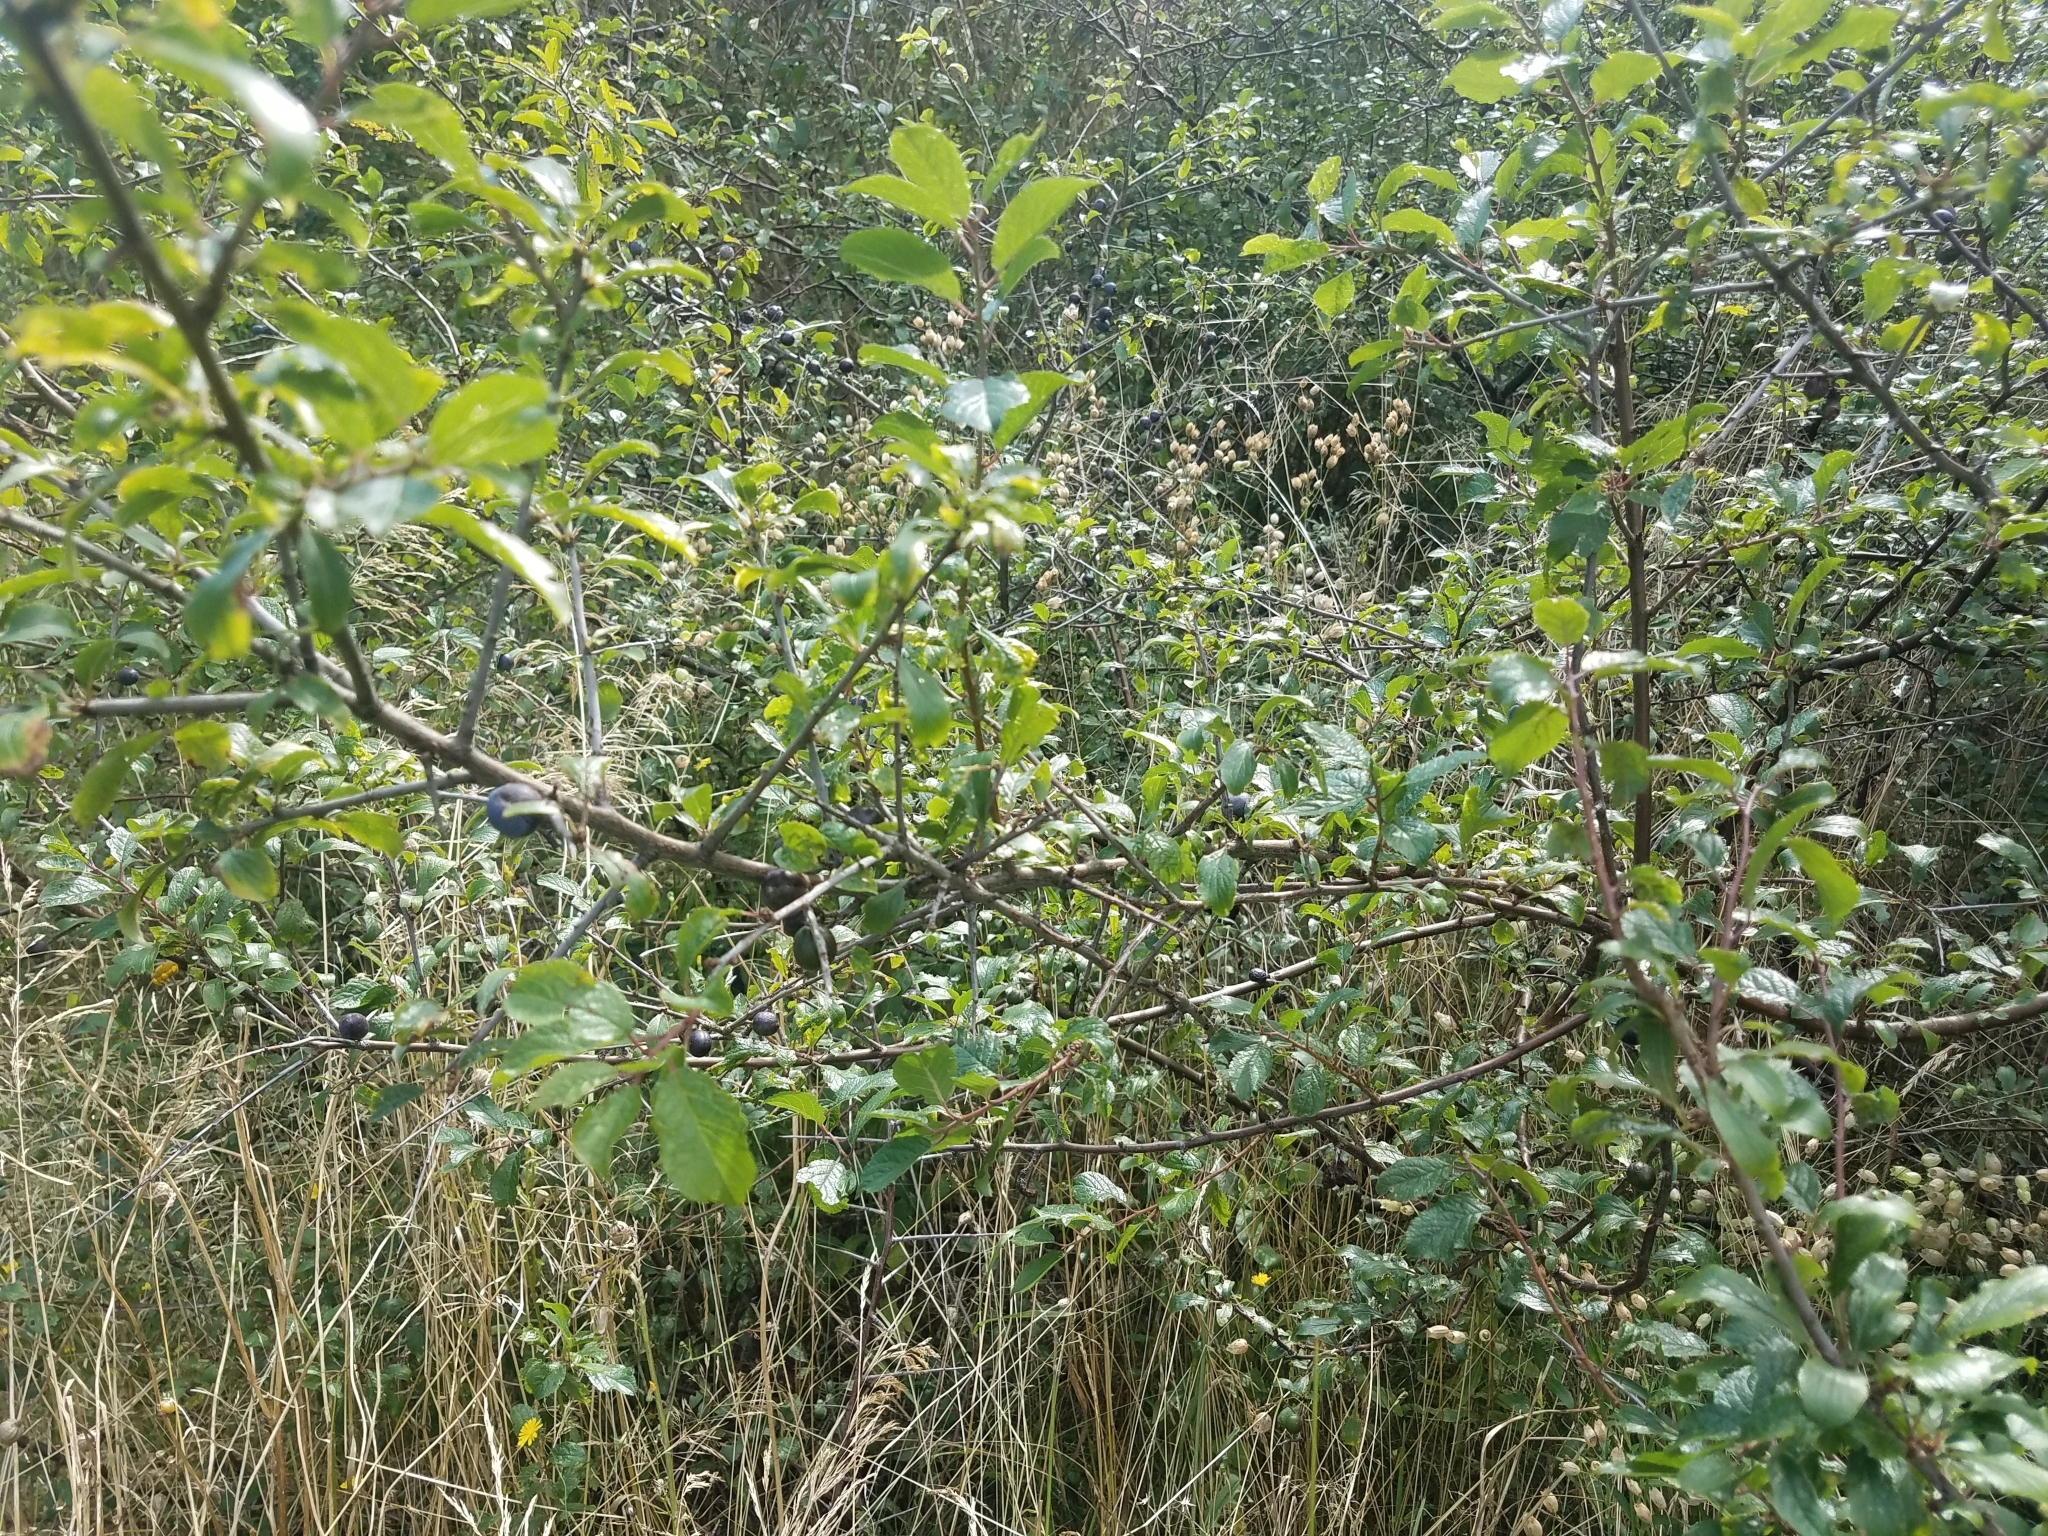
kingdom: Plantae
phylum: Tracheophyta
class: Magnoliopsida
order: Rosales
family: Rosaceae
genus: Prunus
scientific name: Prunus spinosa
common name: Blackthorn
